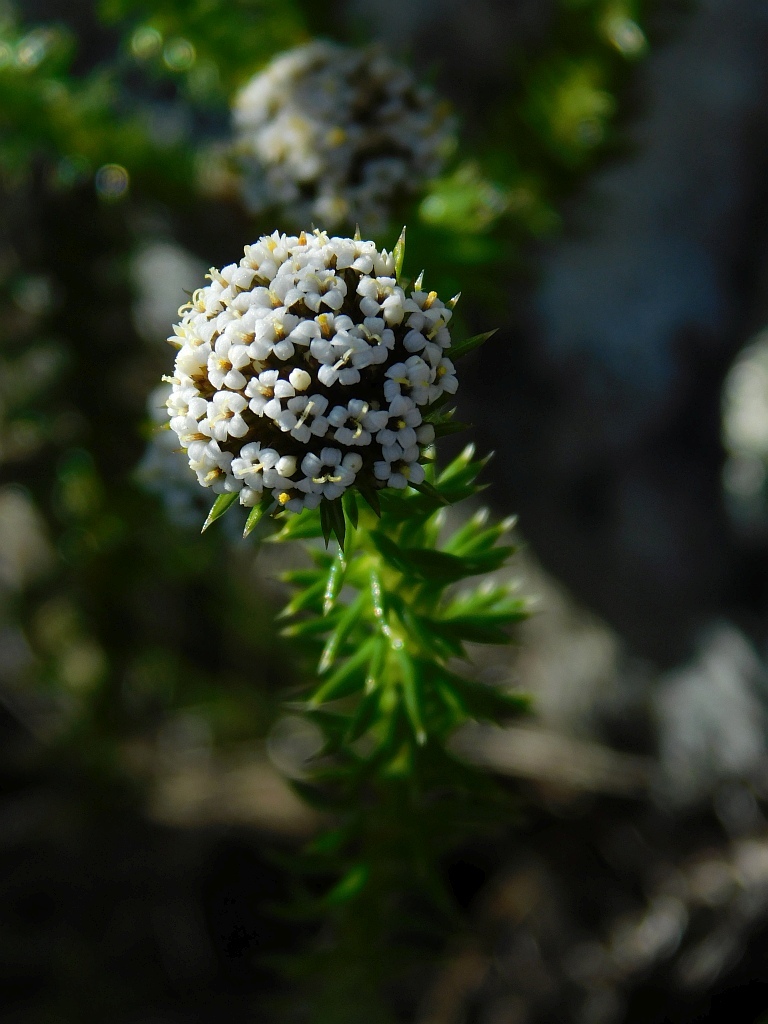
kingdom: Plantae
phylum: Tracheophyta
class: Magnoliopsida
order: Asterales
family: Asteraceae
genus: Stoebe
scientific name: Stoebe aethiopica
